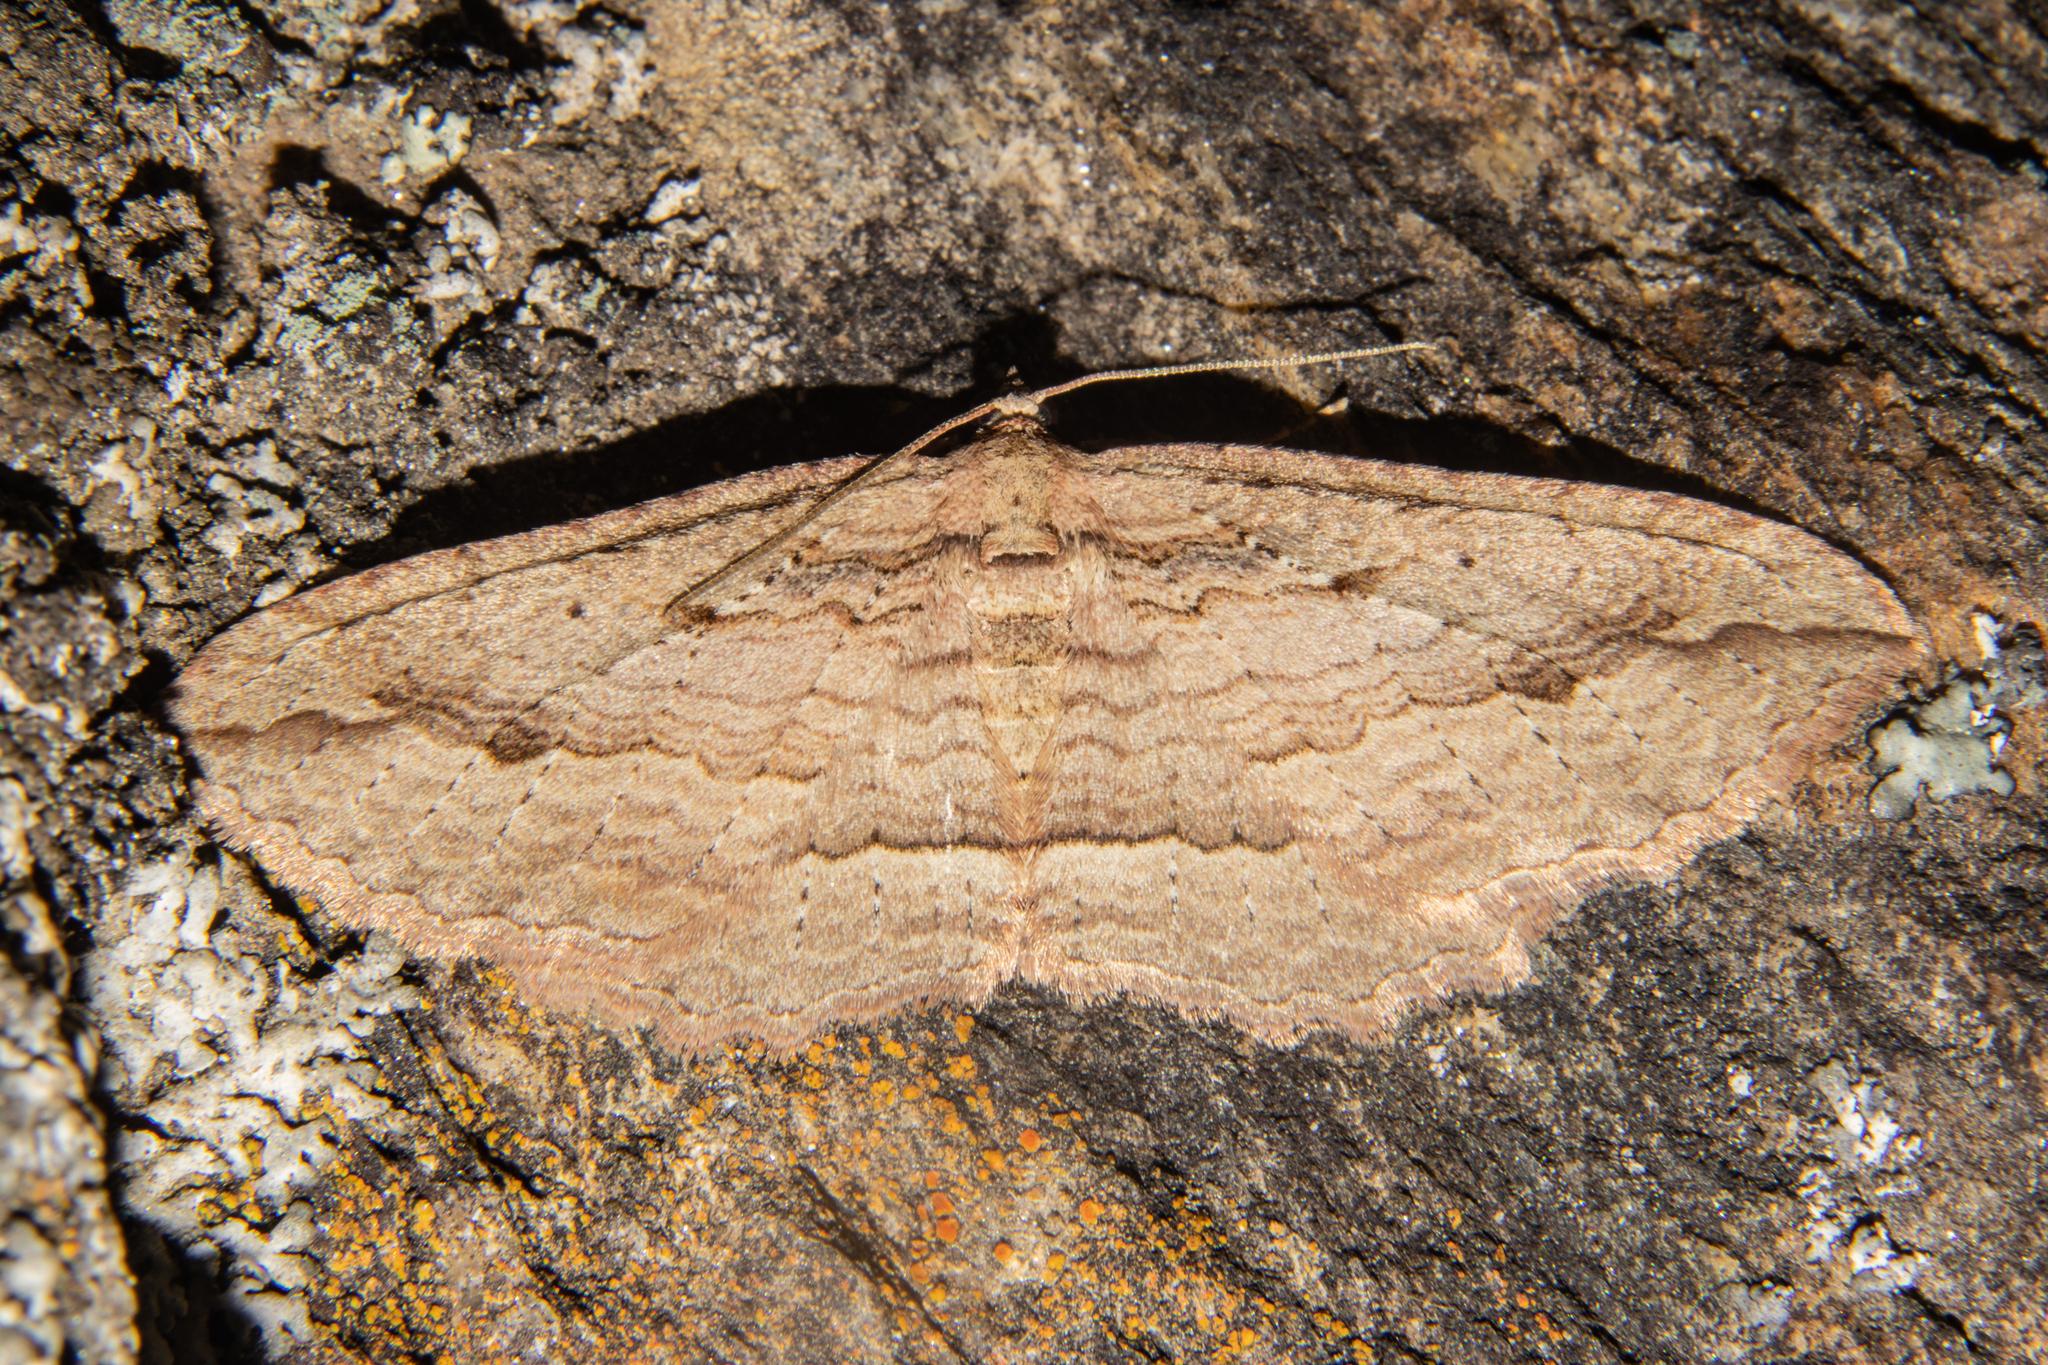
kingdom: Animalia
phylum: Arthropoda
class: Insecta
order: Lepidoptera
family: Geometridae
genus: Austrocidaria
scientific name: Austrocidaria gobiata
